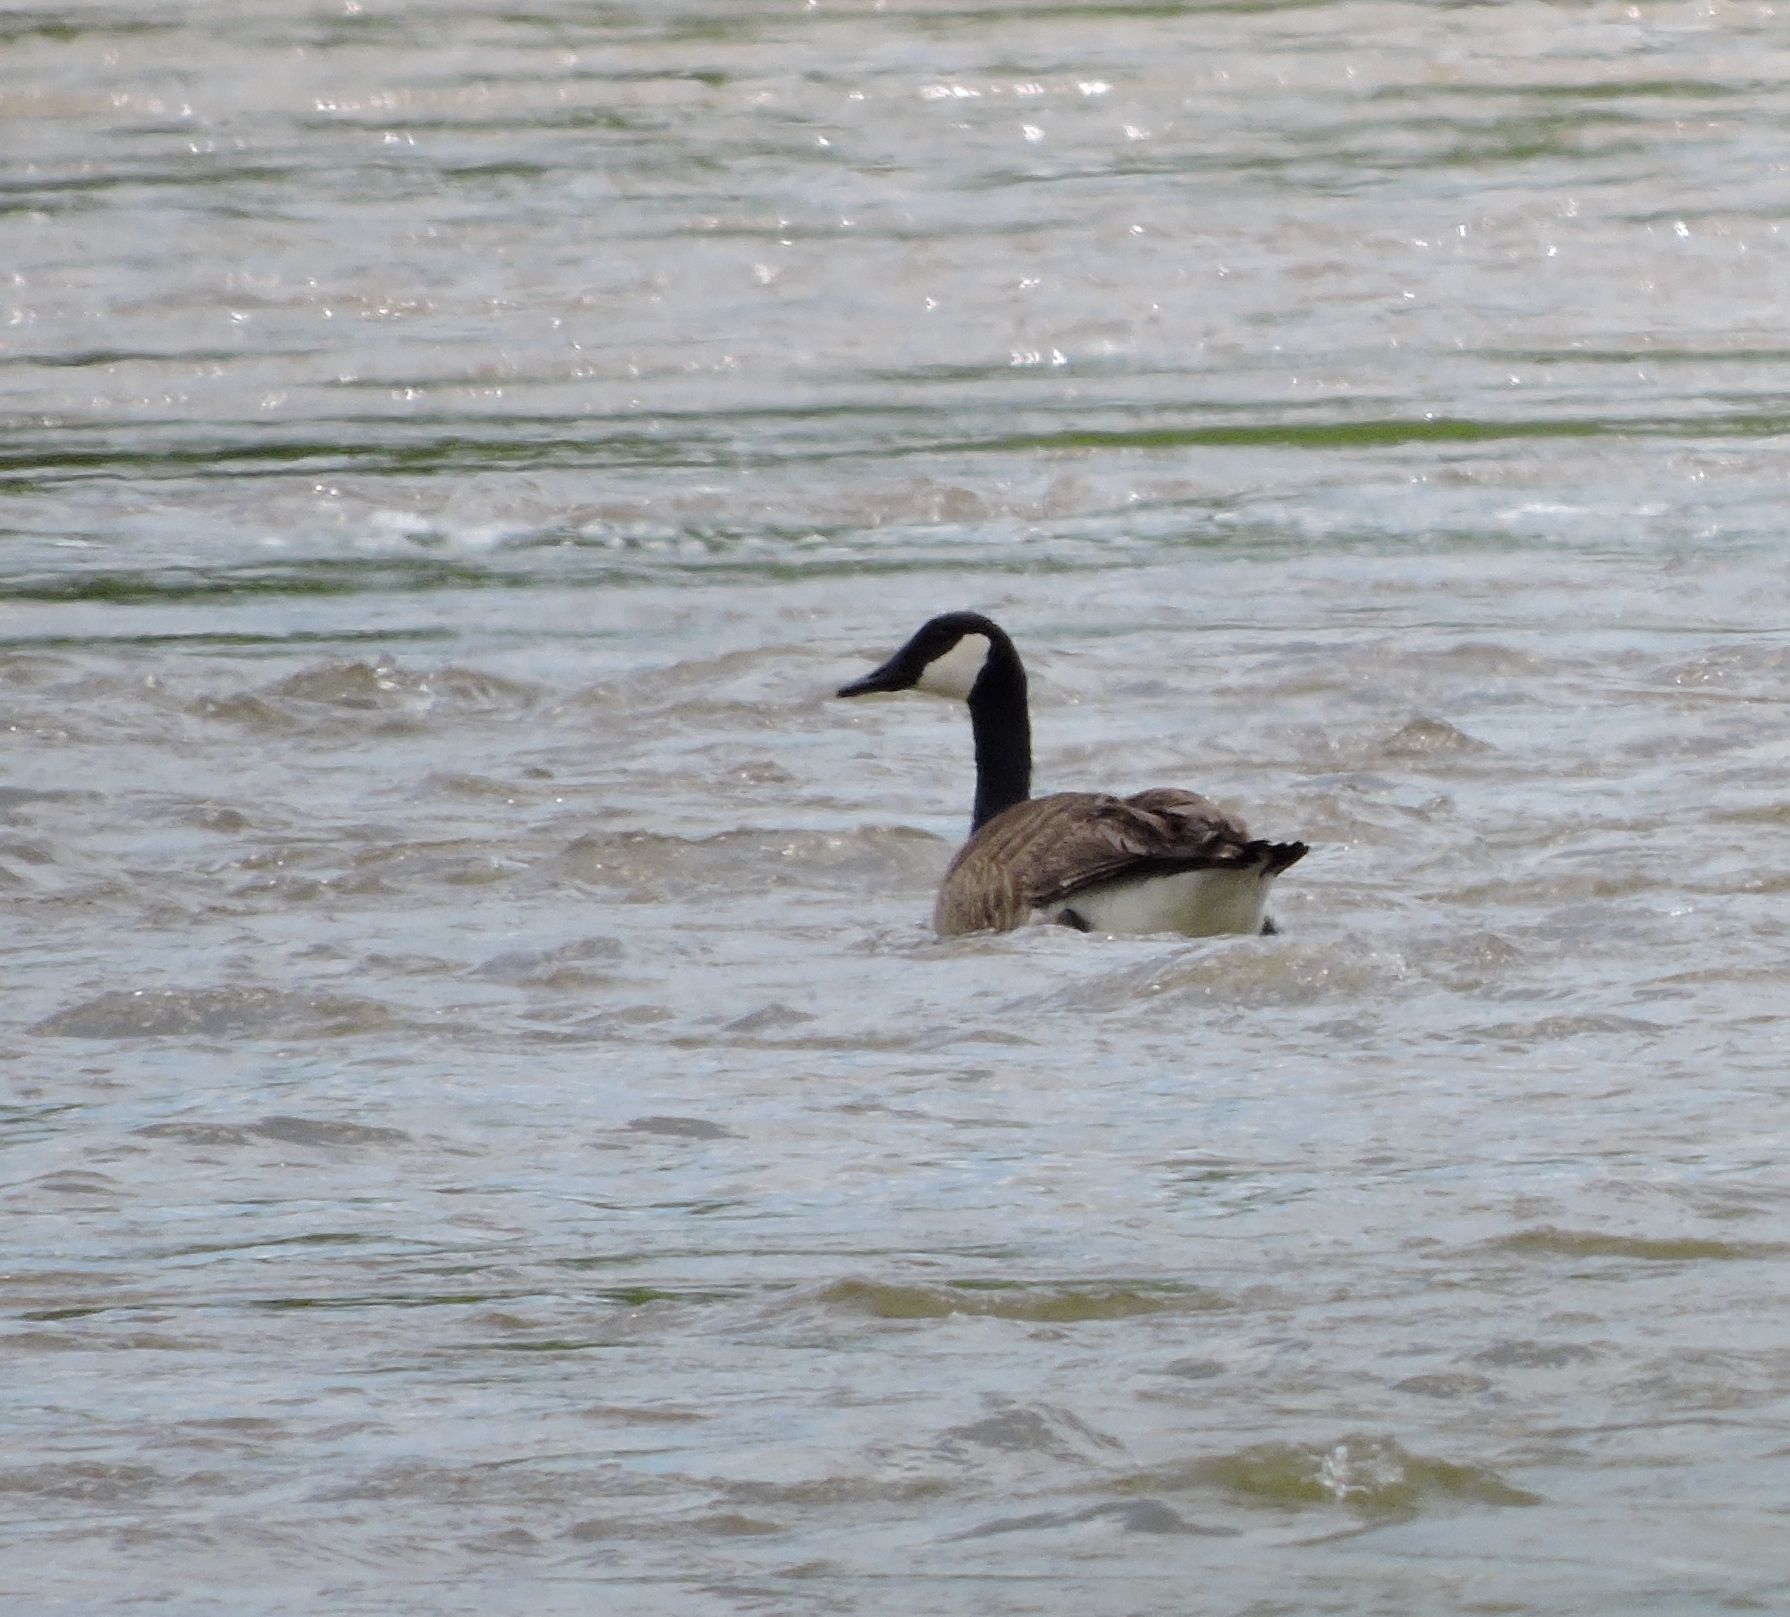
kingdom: Animalia
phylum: Chordata
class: Aves
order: Anseriformes
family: Anatidae
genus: Branta
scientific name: Branta canadensis
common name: Canada goose
